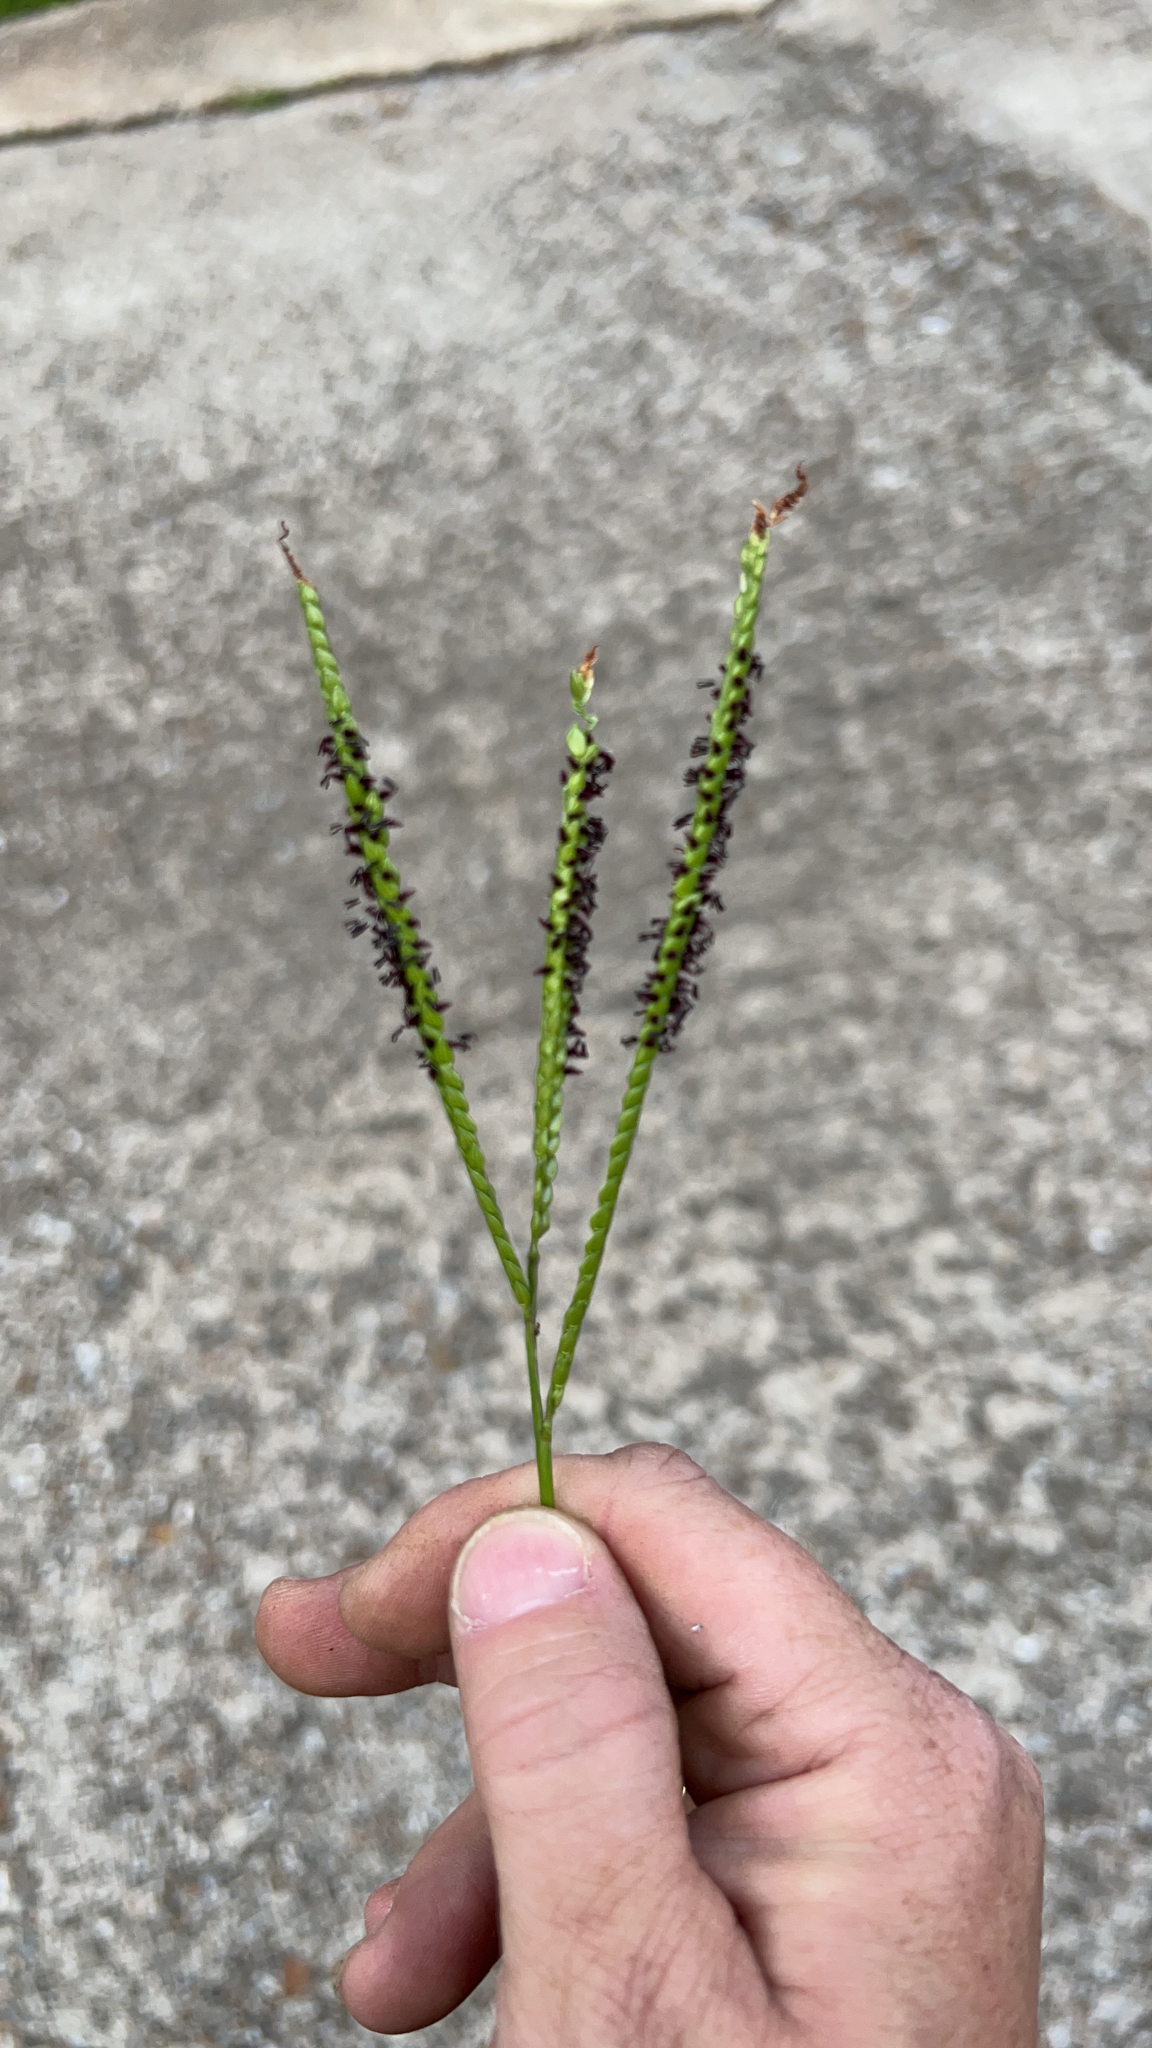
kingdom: Plantae
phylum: Tracheophyta
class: Liliopsida
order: Poales
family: Poaceae
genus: Paspalum
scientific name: Paspalum notatum
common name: Bahiagrass
